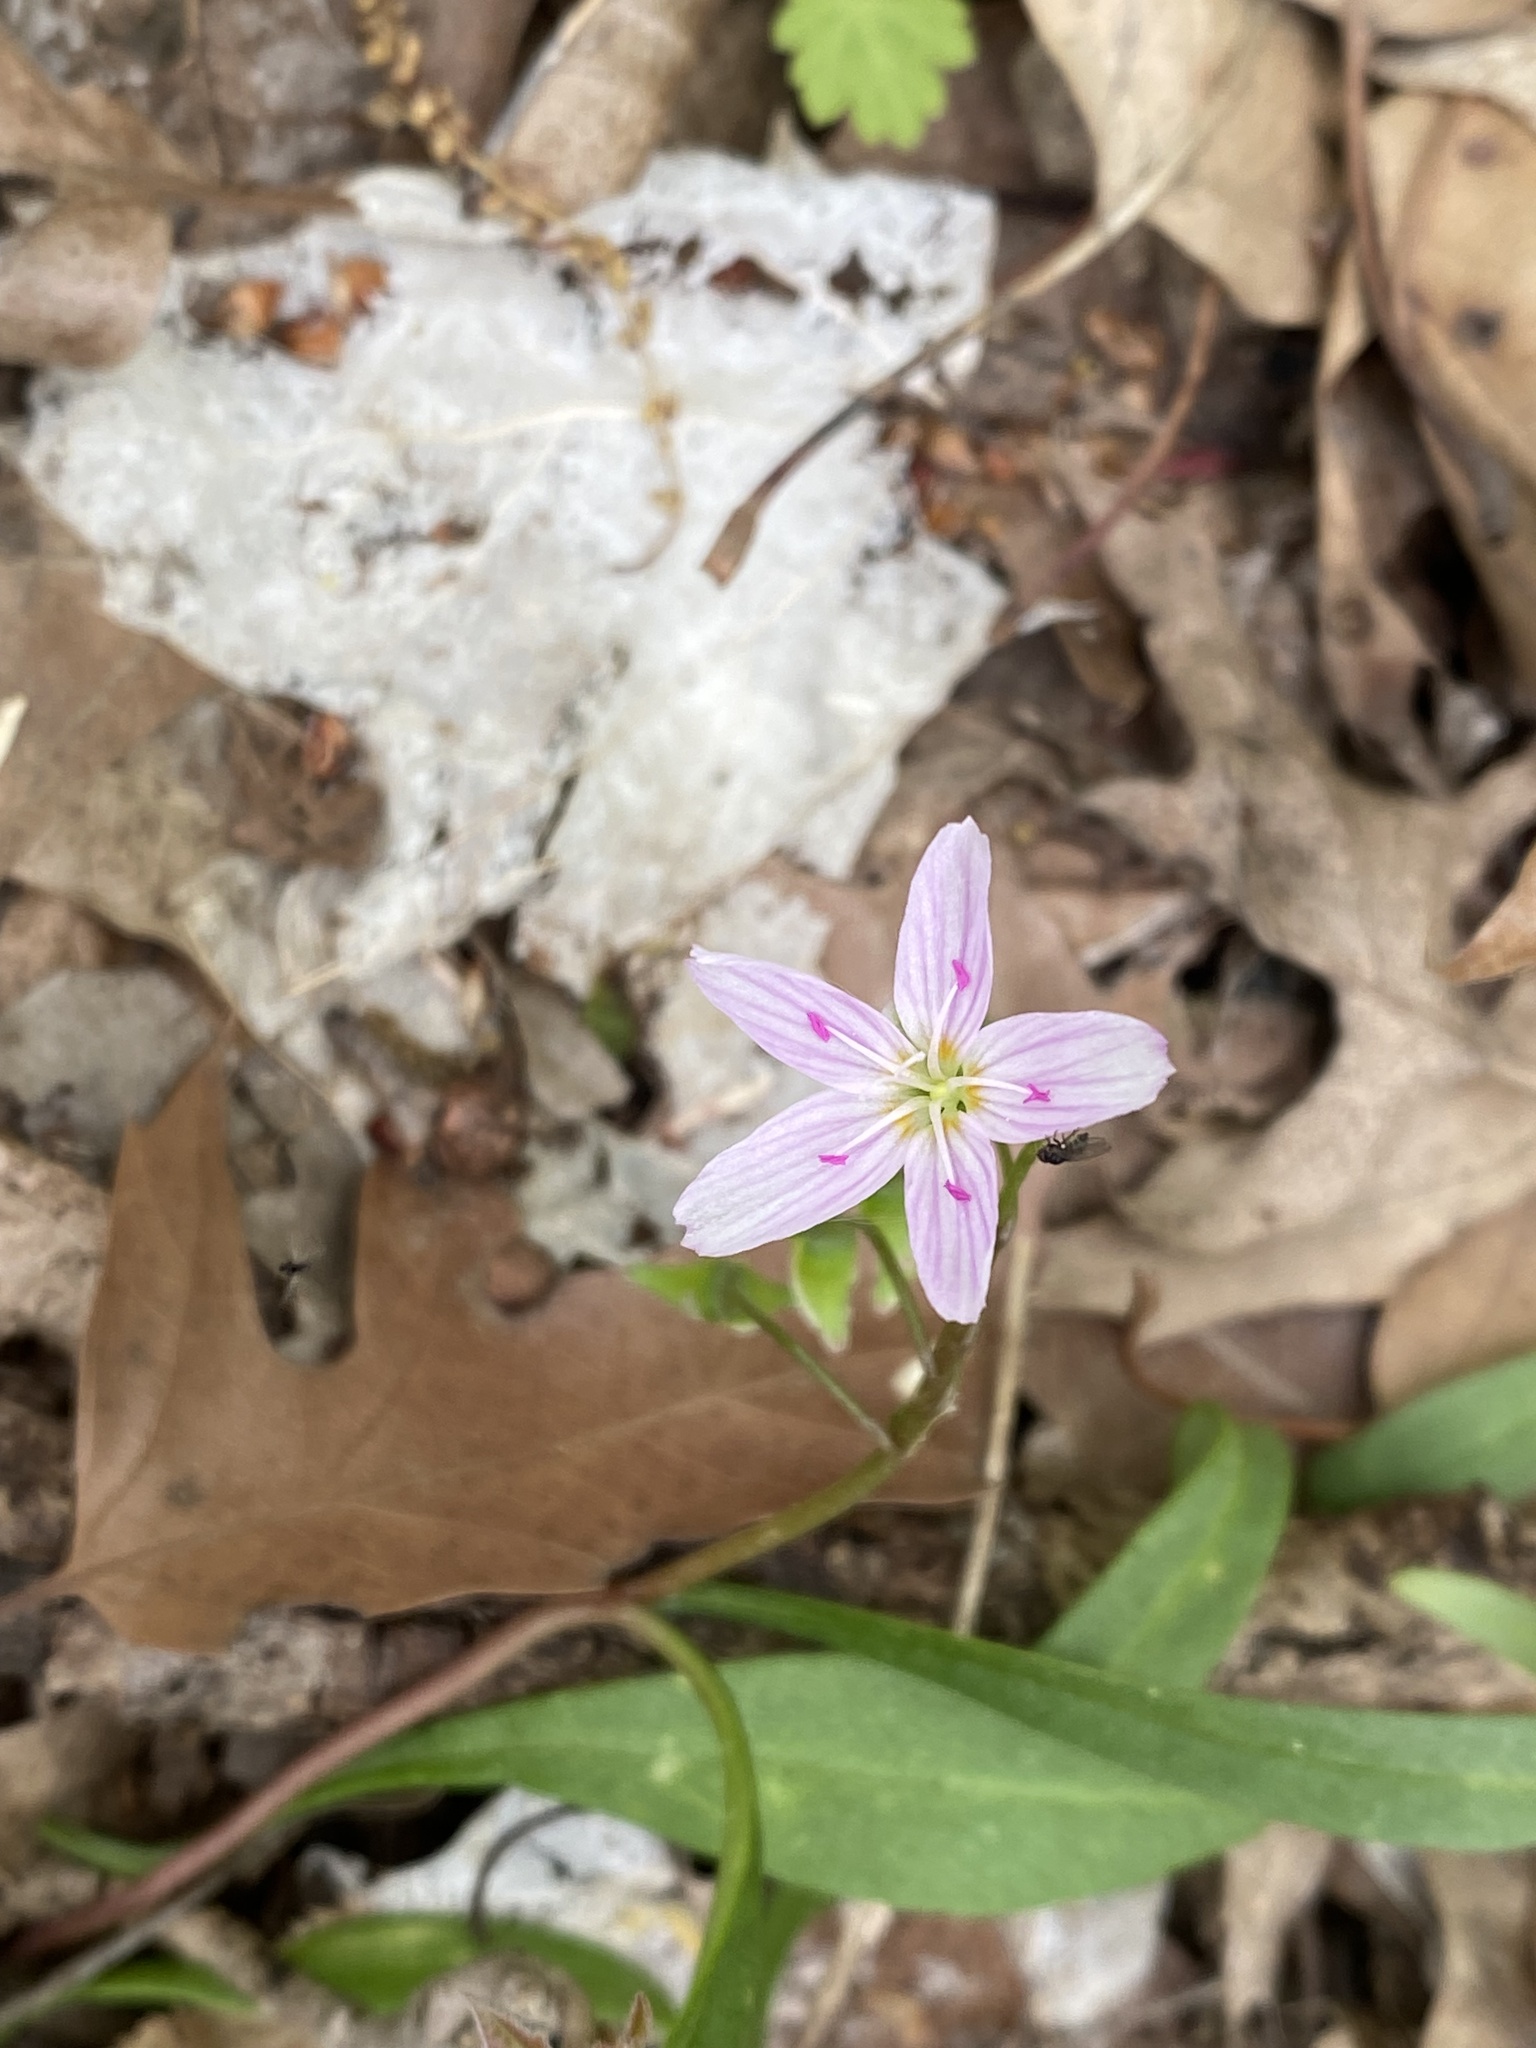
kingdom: Plantae
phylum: Tracheophyta
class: Magnoliopsida
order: Caryophyllales
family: Montiaceae
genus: Claytonia
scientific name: Claytonia virginica
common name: Virginia springbeauty
